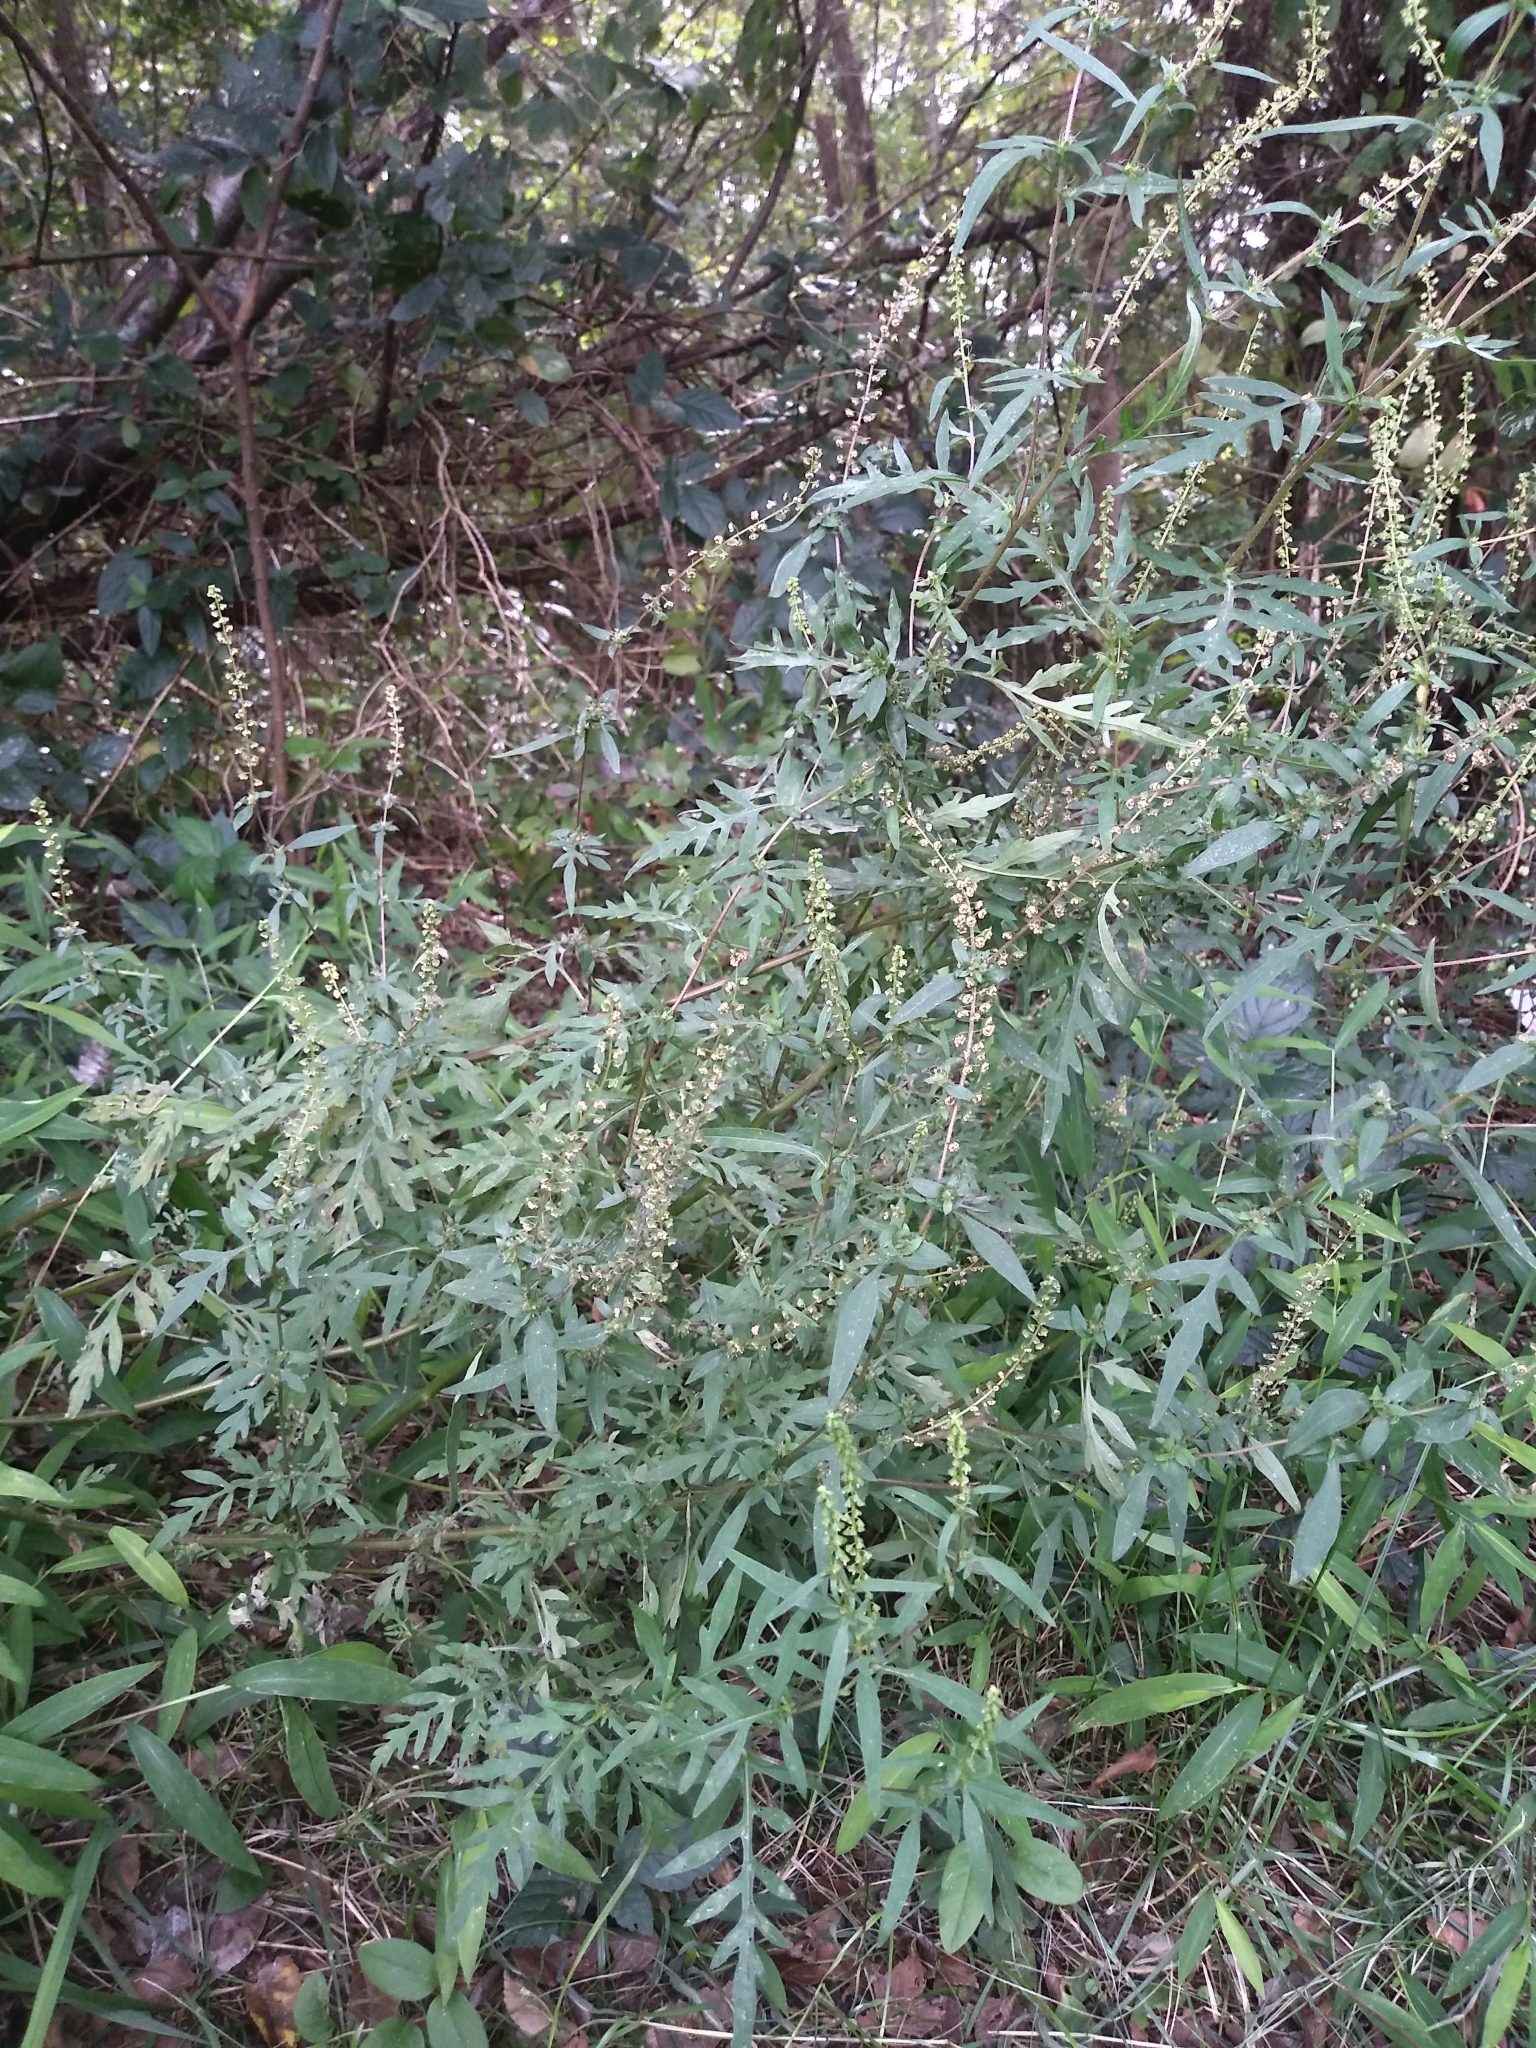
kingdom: Plantae
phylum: Tracheophyta
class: Magnoliopsida
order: Asterales
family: Asteraceae
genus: Ambrosia
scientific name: Ambrosia artemisiifolia
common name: Annual ragweed
